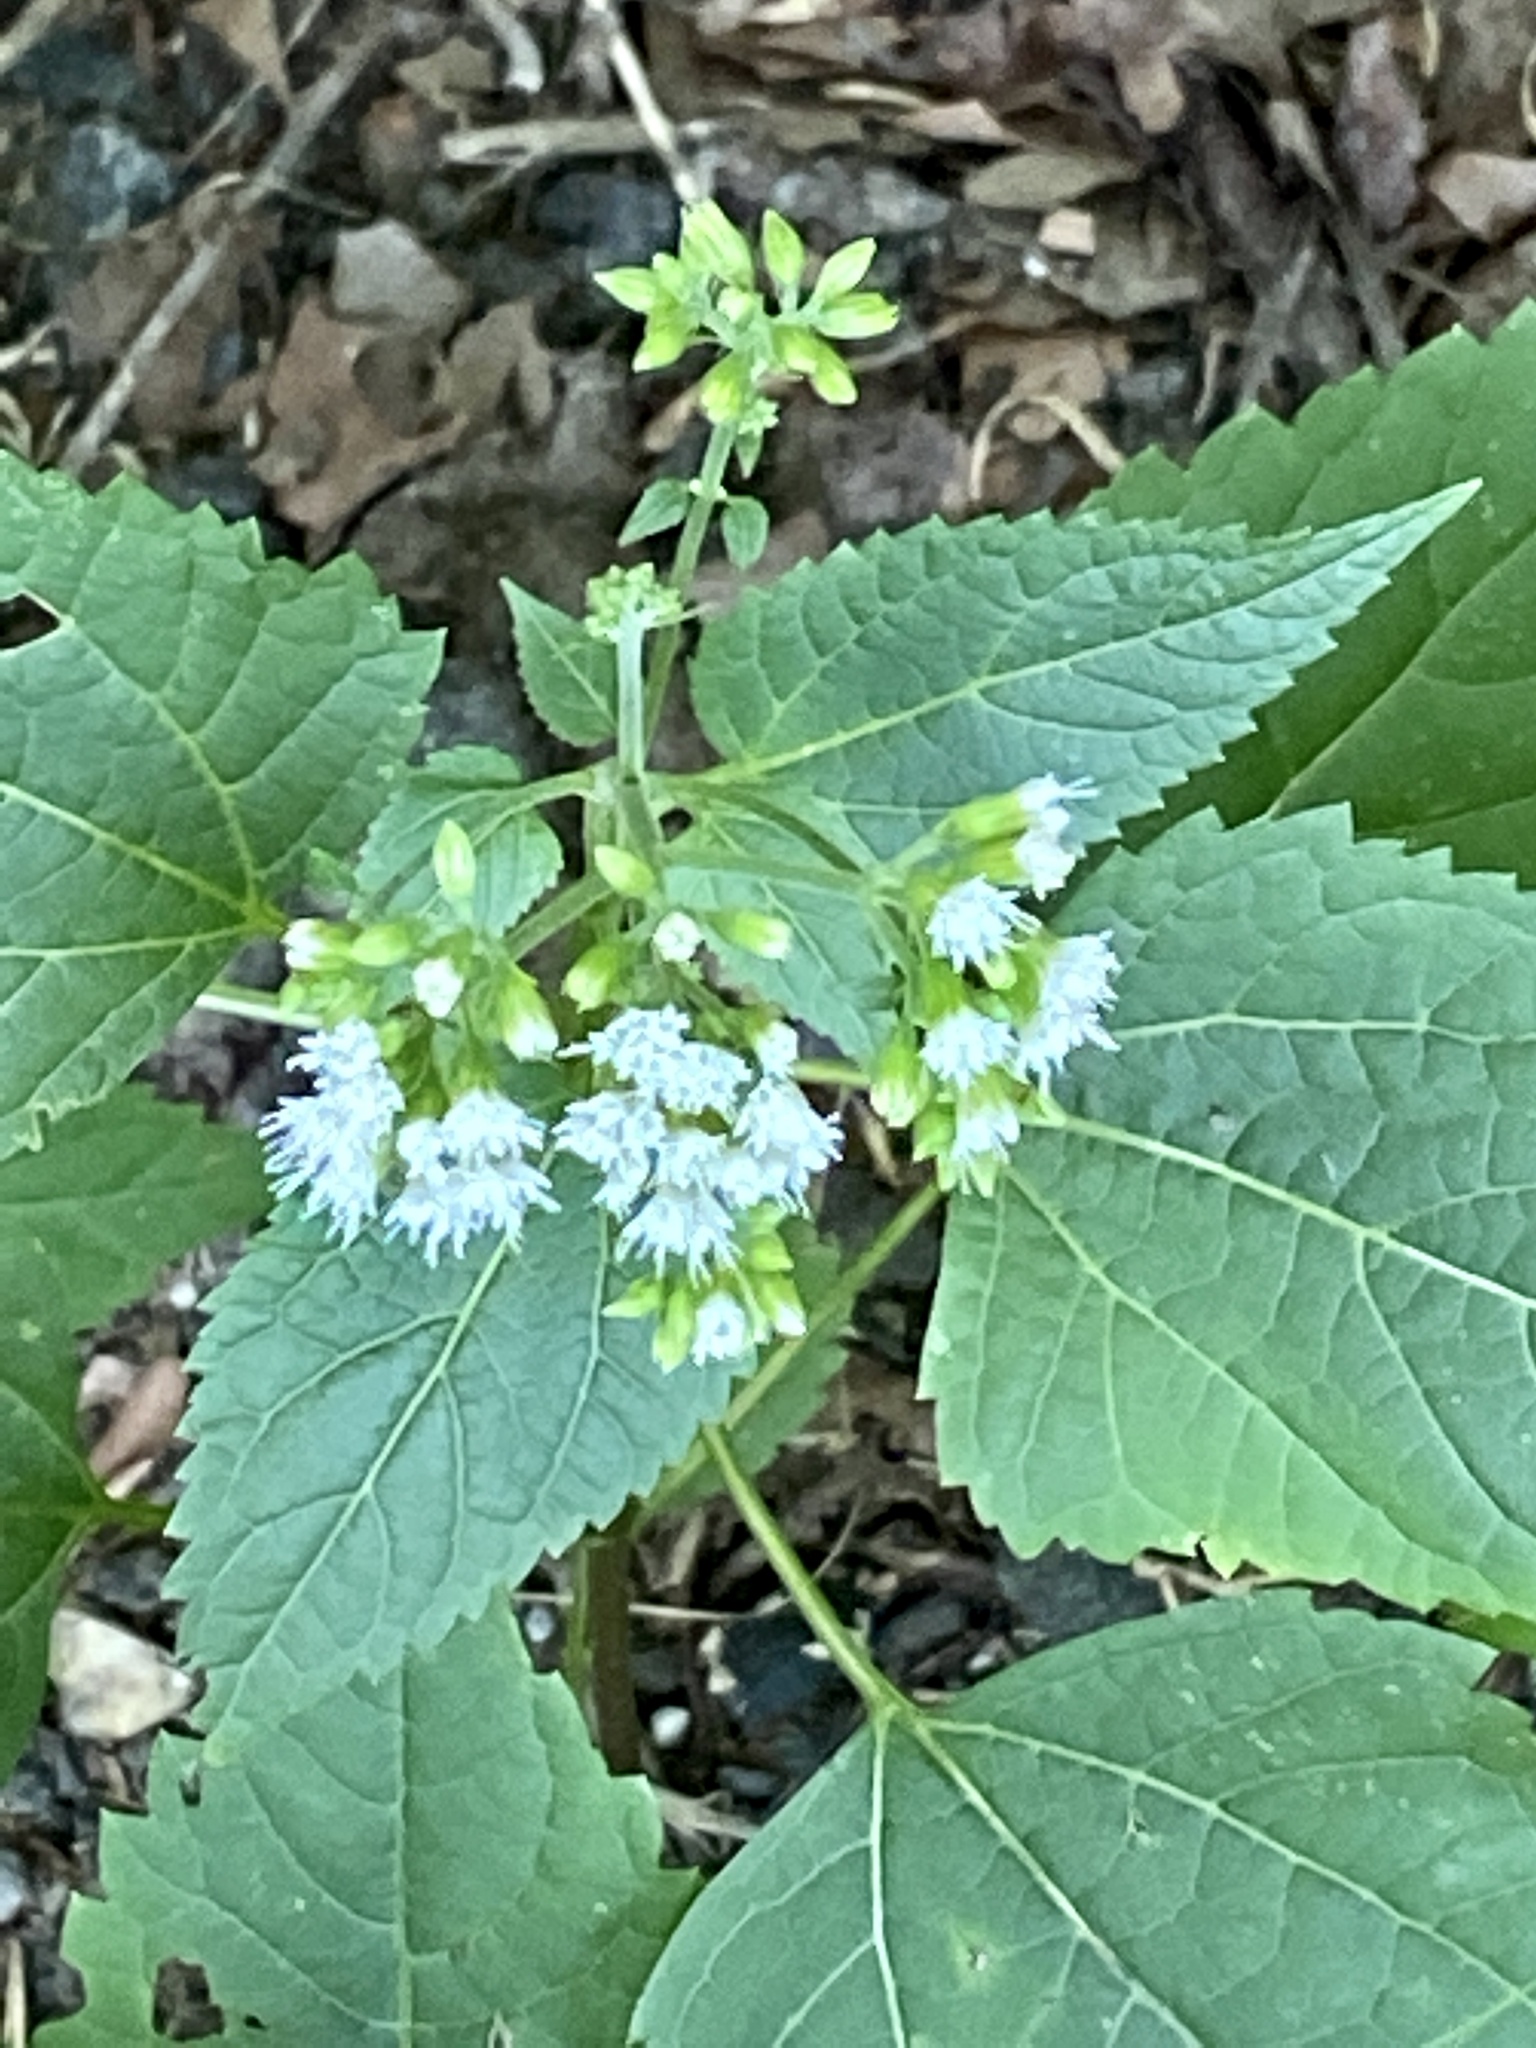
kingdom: Plantae
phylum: Tracheophyta
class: Magnoliopsida
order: Asterales
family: Asteraceae
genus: Ageratina
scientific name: Ageratina altissima
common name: White snakeroot
